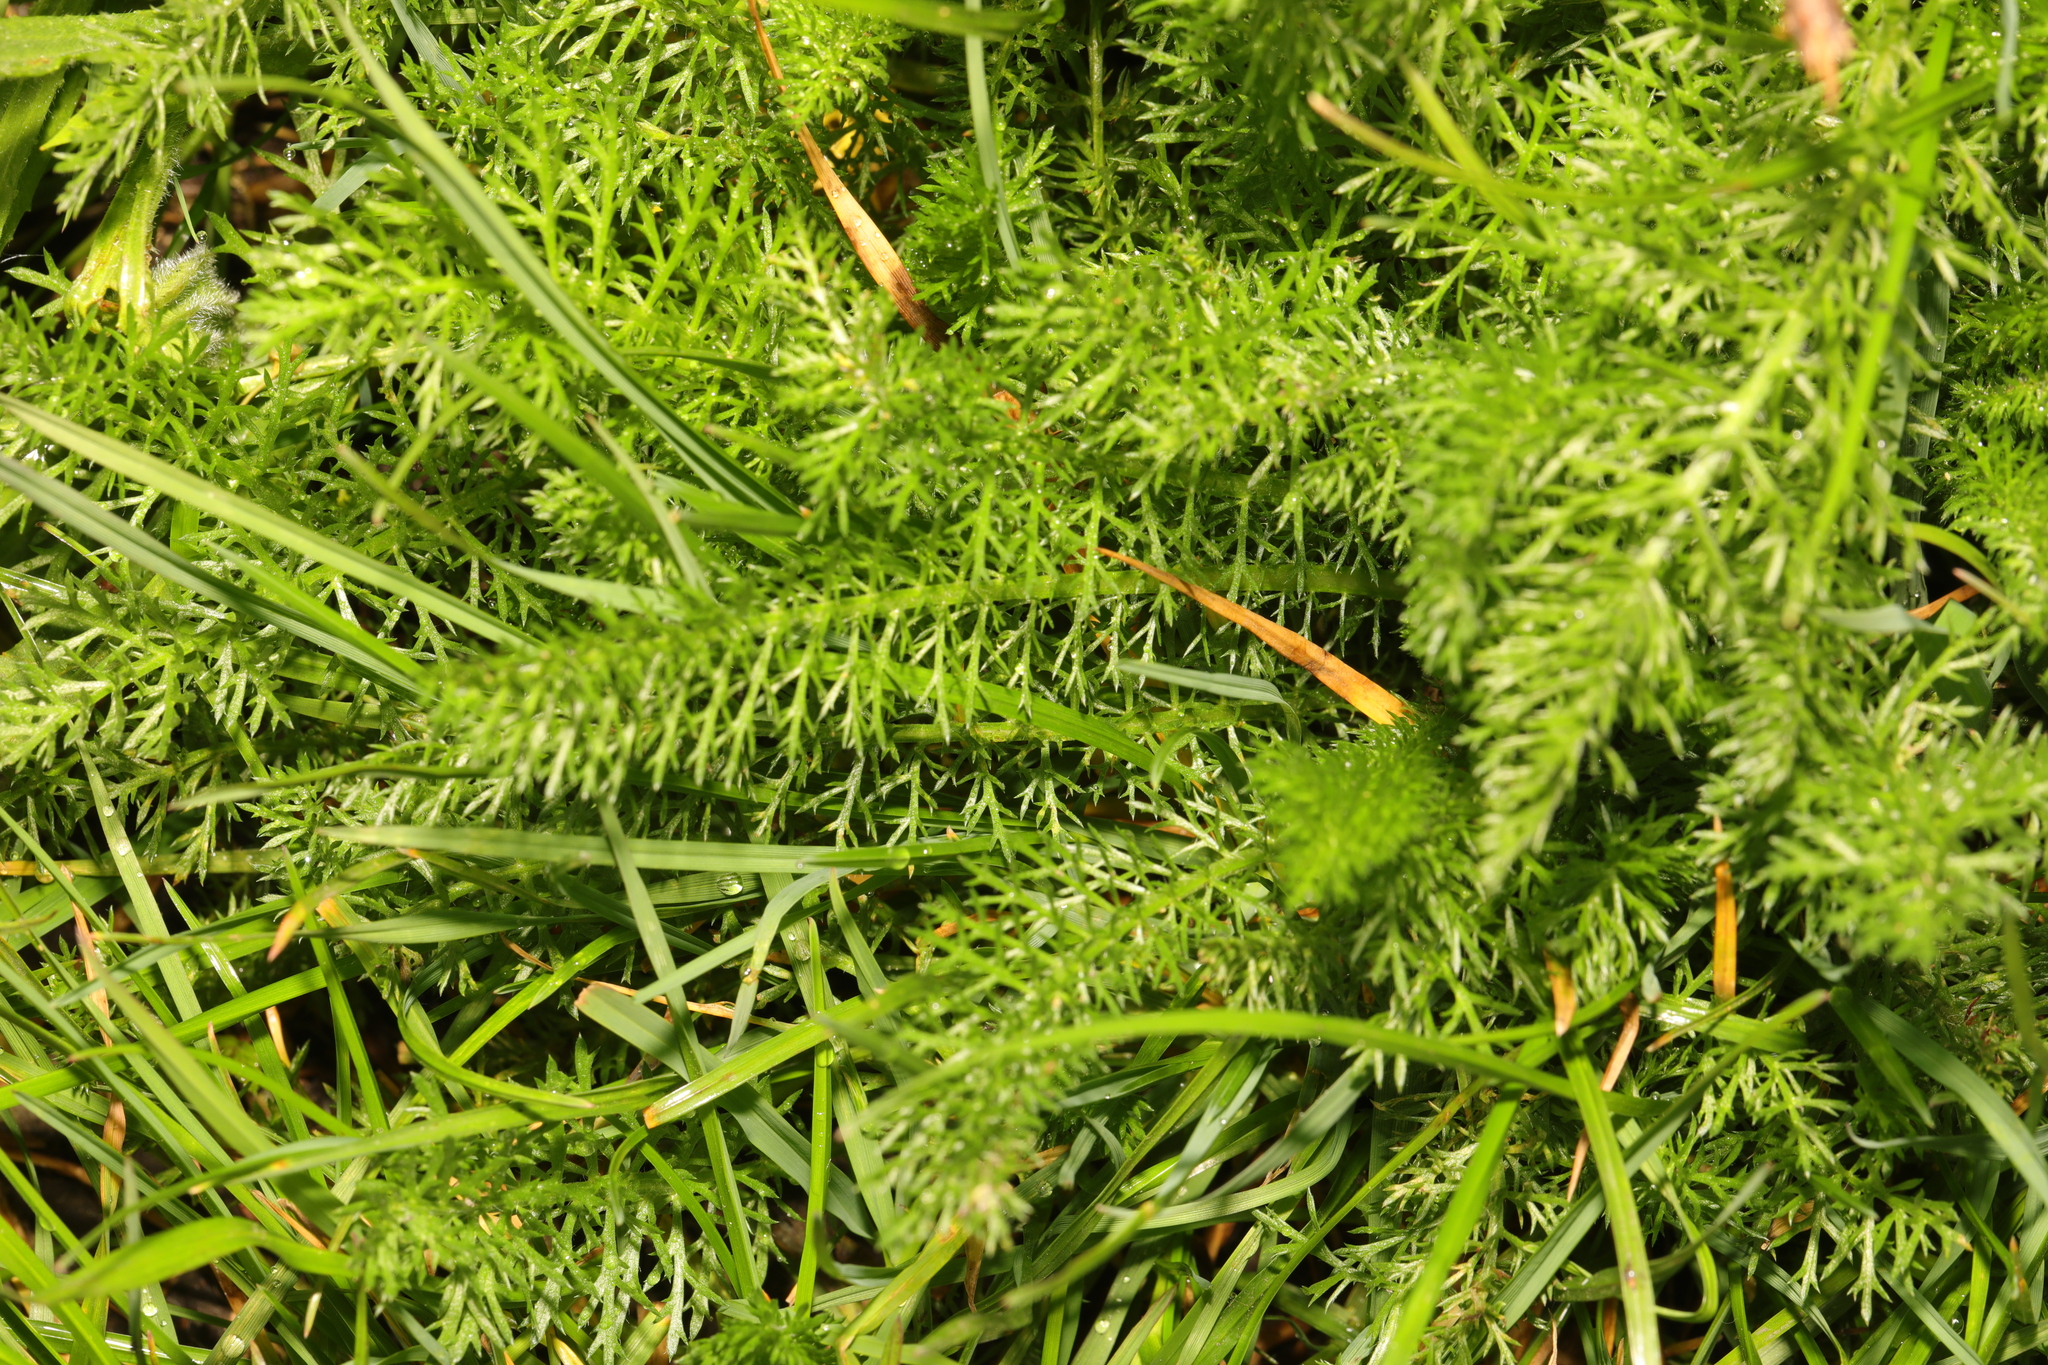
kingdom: Plantae
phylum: Tracheophyta
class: Magnoliopsida
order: Asterales
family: Asteraceae
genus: Achillea
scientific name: Achillea millefolium
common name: Yarrow
